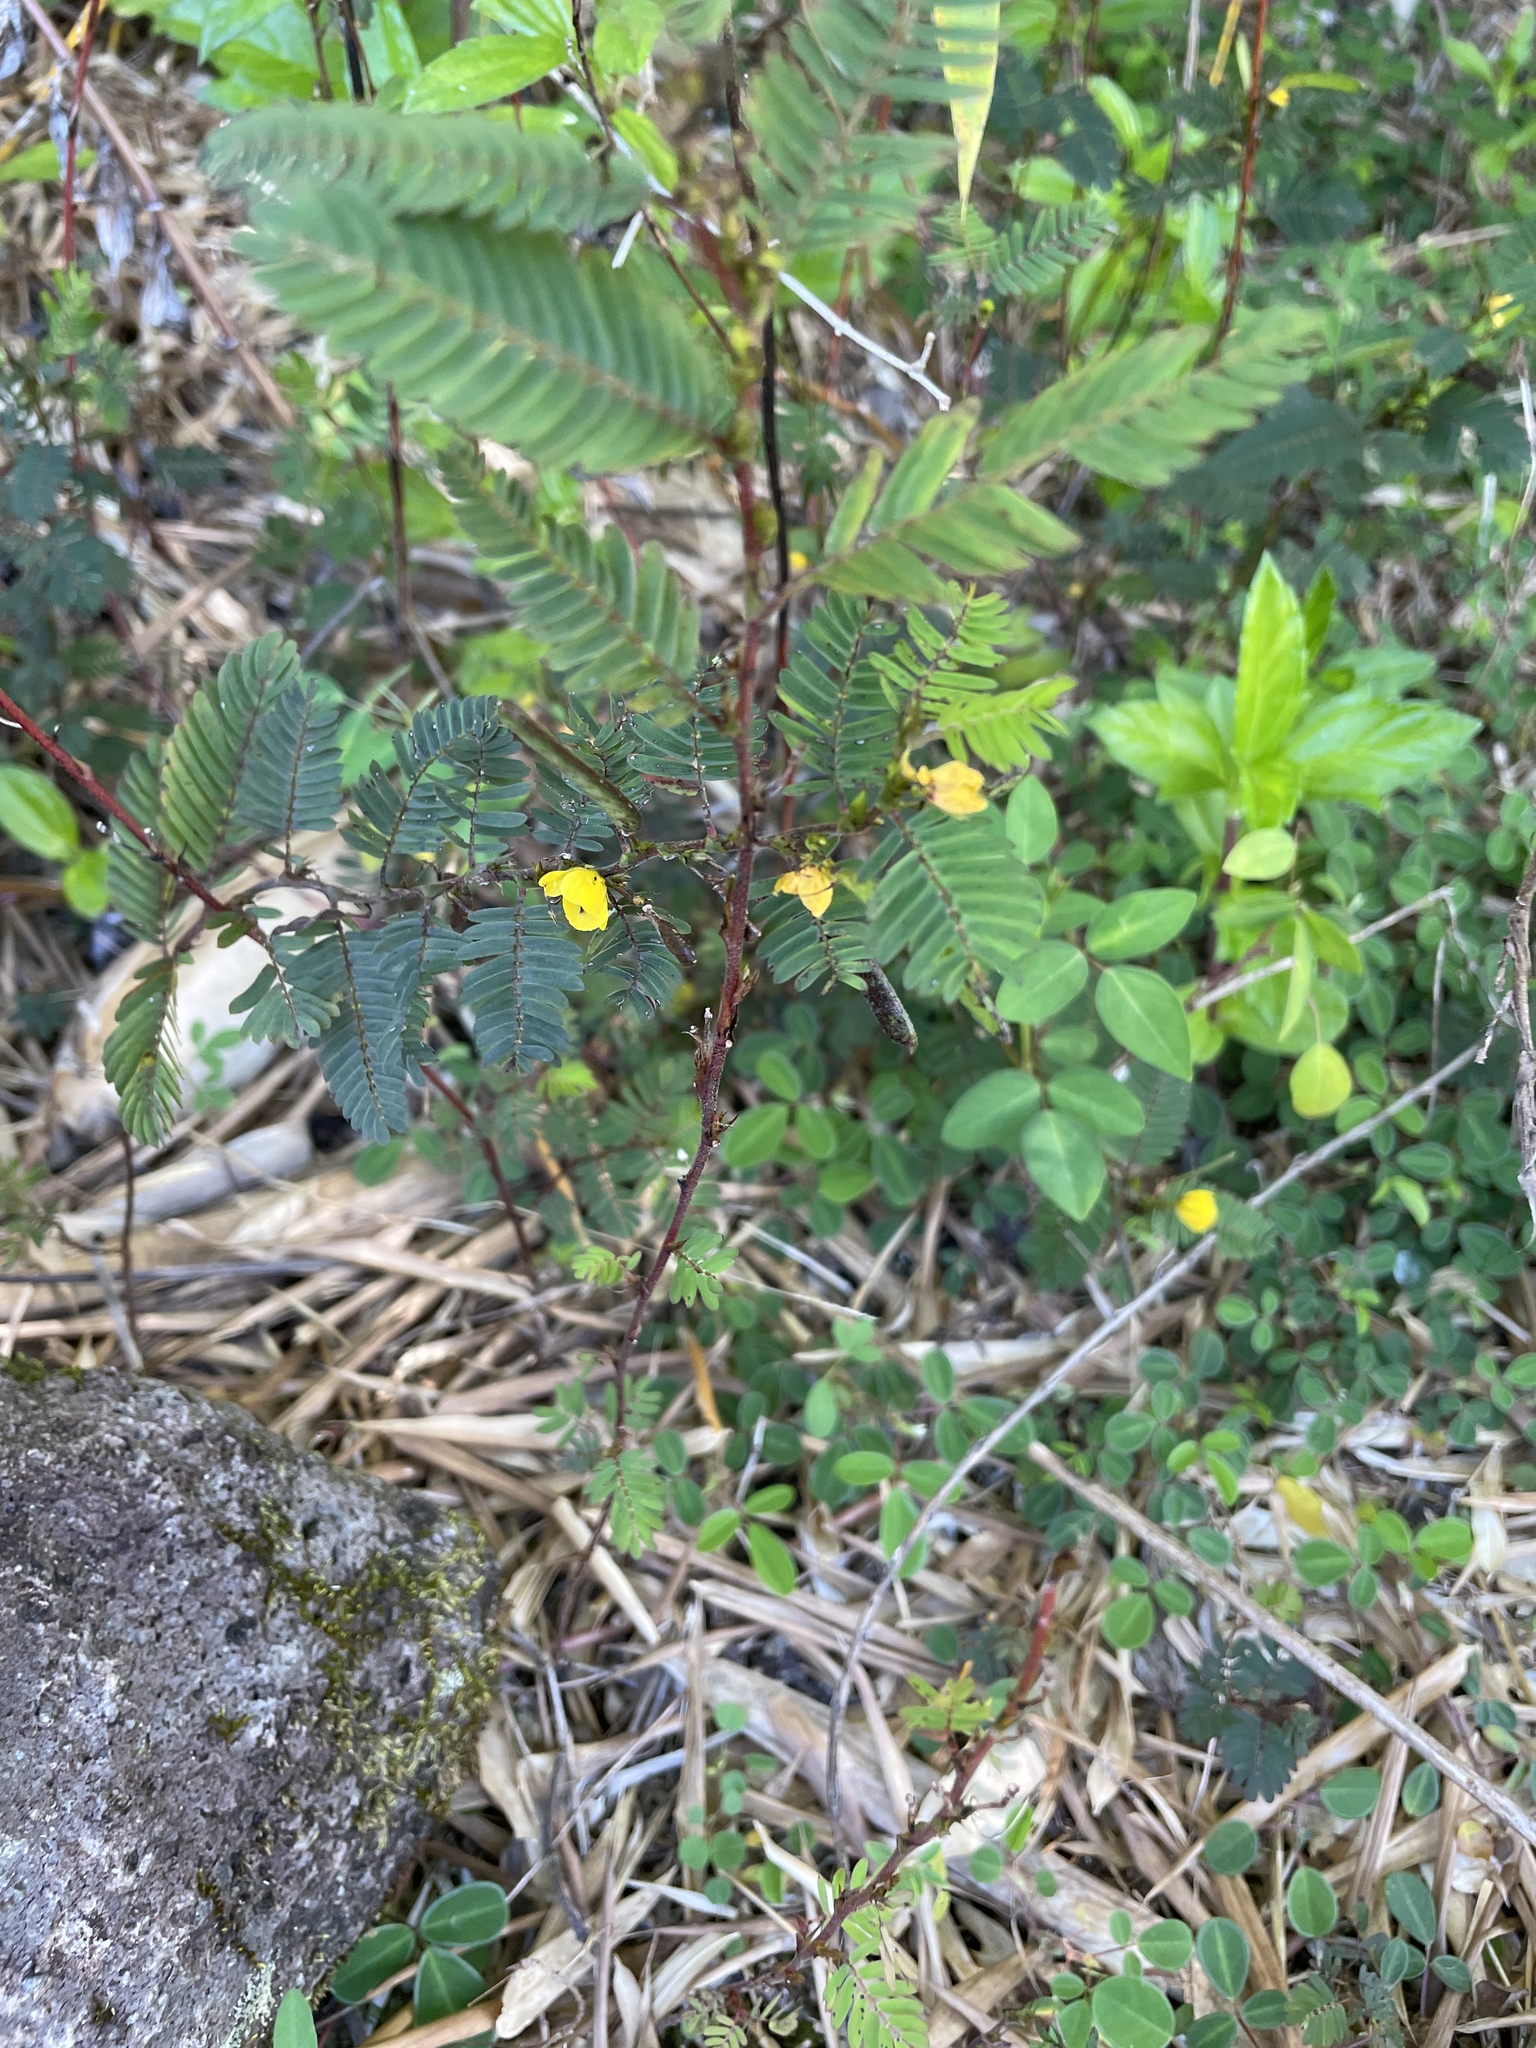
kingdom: Plantae
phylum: Tracheophyta
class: Magnoliopsida
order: Fabales
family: Fabaceae
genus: Chamaecrista
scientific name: Chamaecrista nictitans
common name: Sensitive cassia
